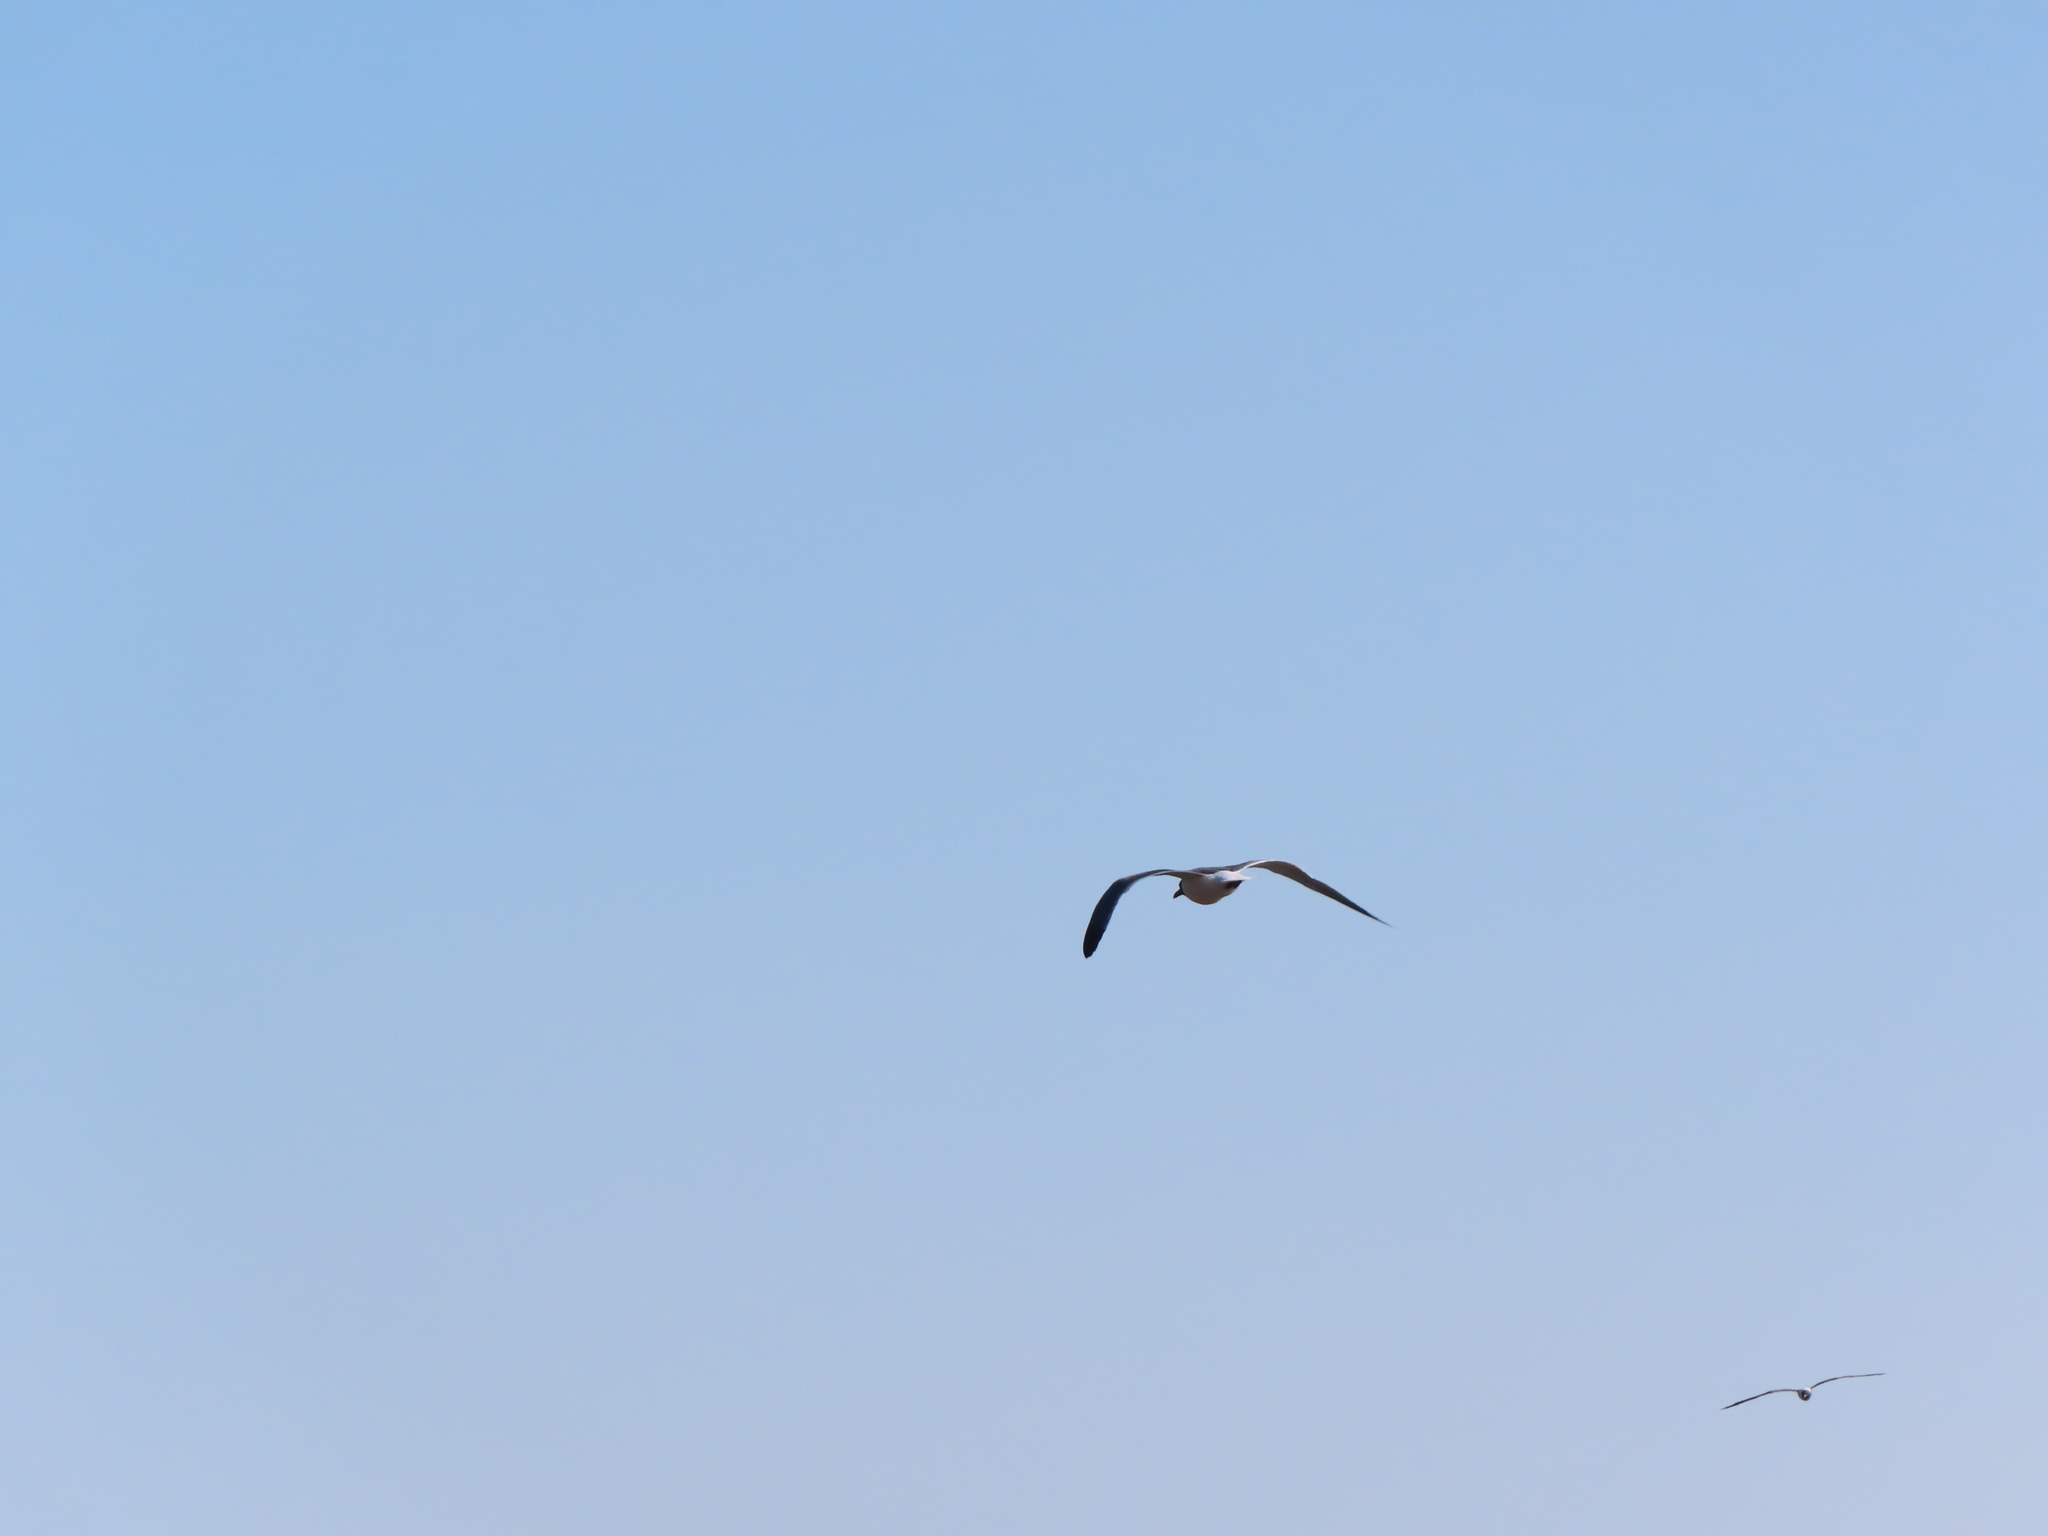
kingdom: Animalia
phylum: Chordata
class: Aves
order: Charadriiformes
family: Laridae
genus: Leucophaeus
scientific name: Leucophaeus atricilla
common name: Laughing gull
